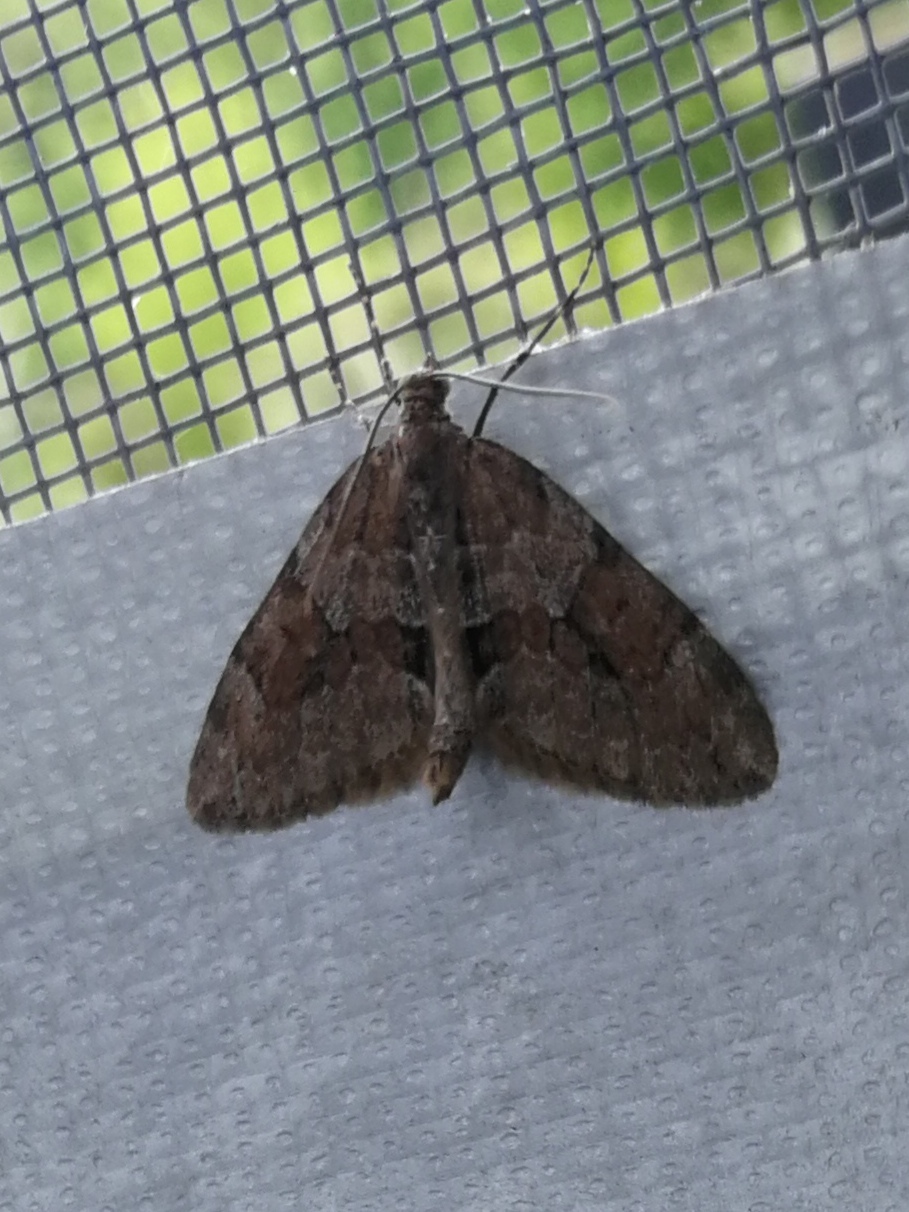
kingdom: Animalia
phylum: Arthropoda
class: Insecta
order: Lepidoptera
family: Geometridae
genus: Thera
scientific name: Thera obeliscata
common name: Grey pine carpet
